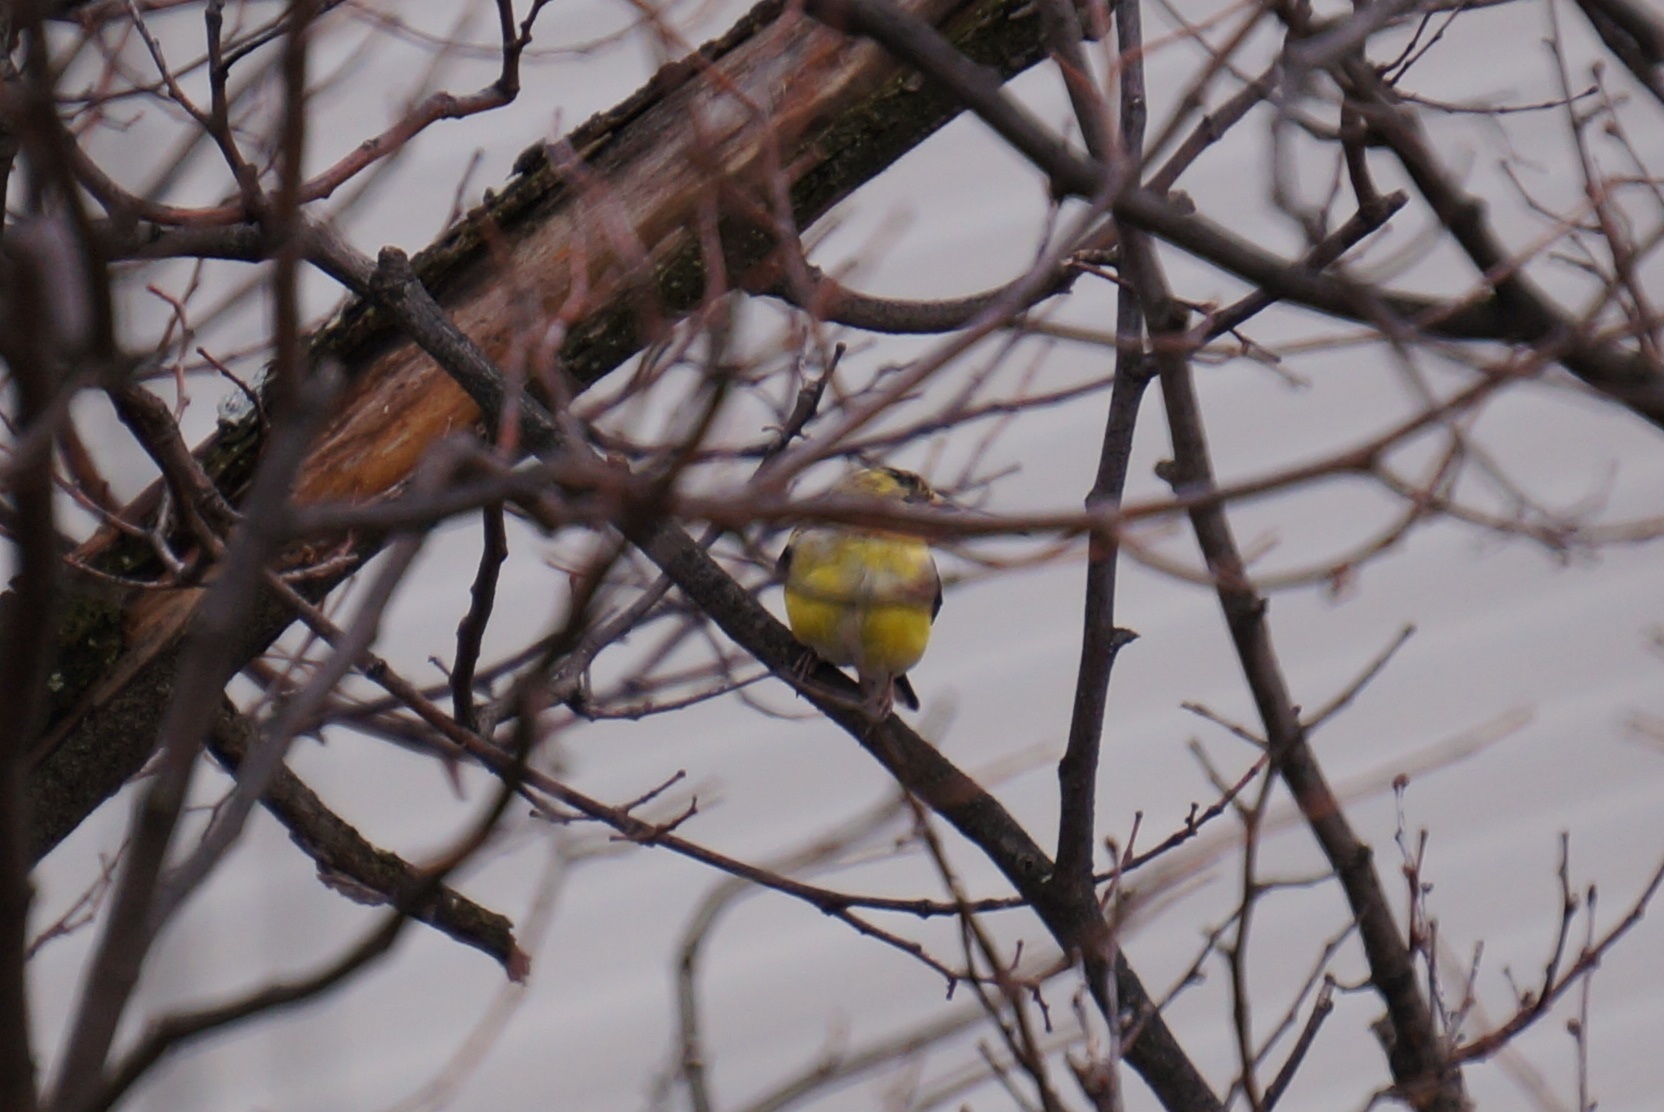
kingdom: Animalia
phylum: Chordata
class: Aves
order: Passeriformes
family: Fringillidae
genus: Spinus
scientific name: Spinus tristis
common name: American goldfinch
